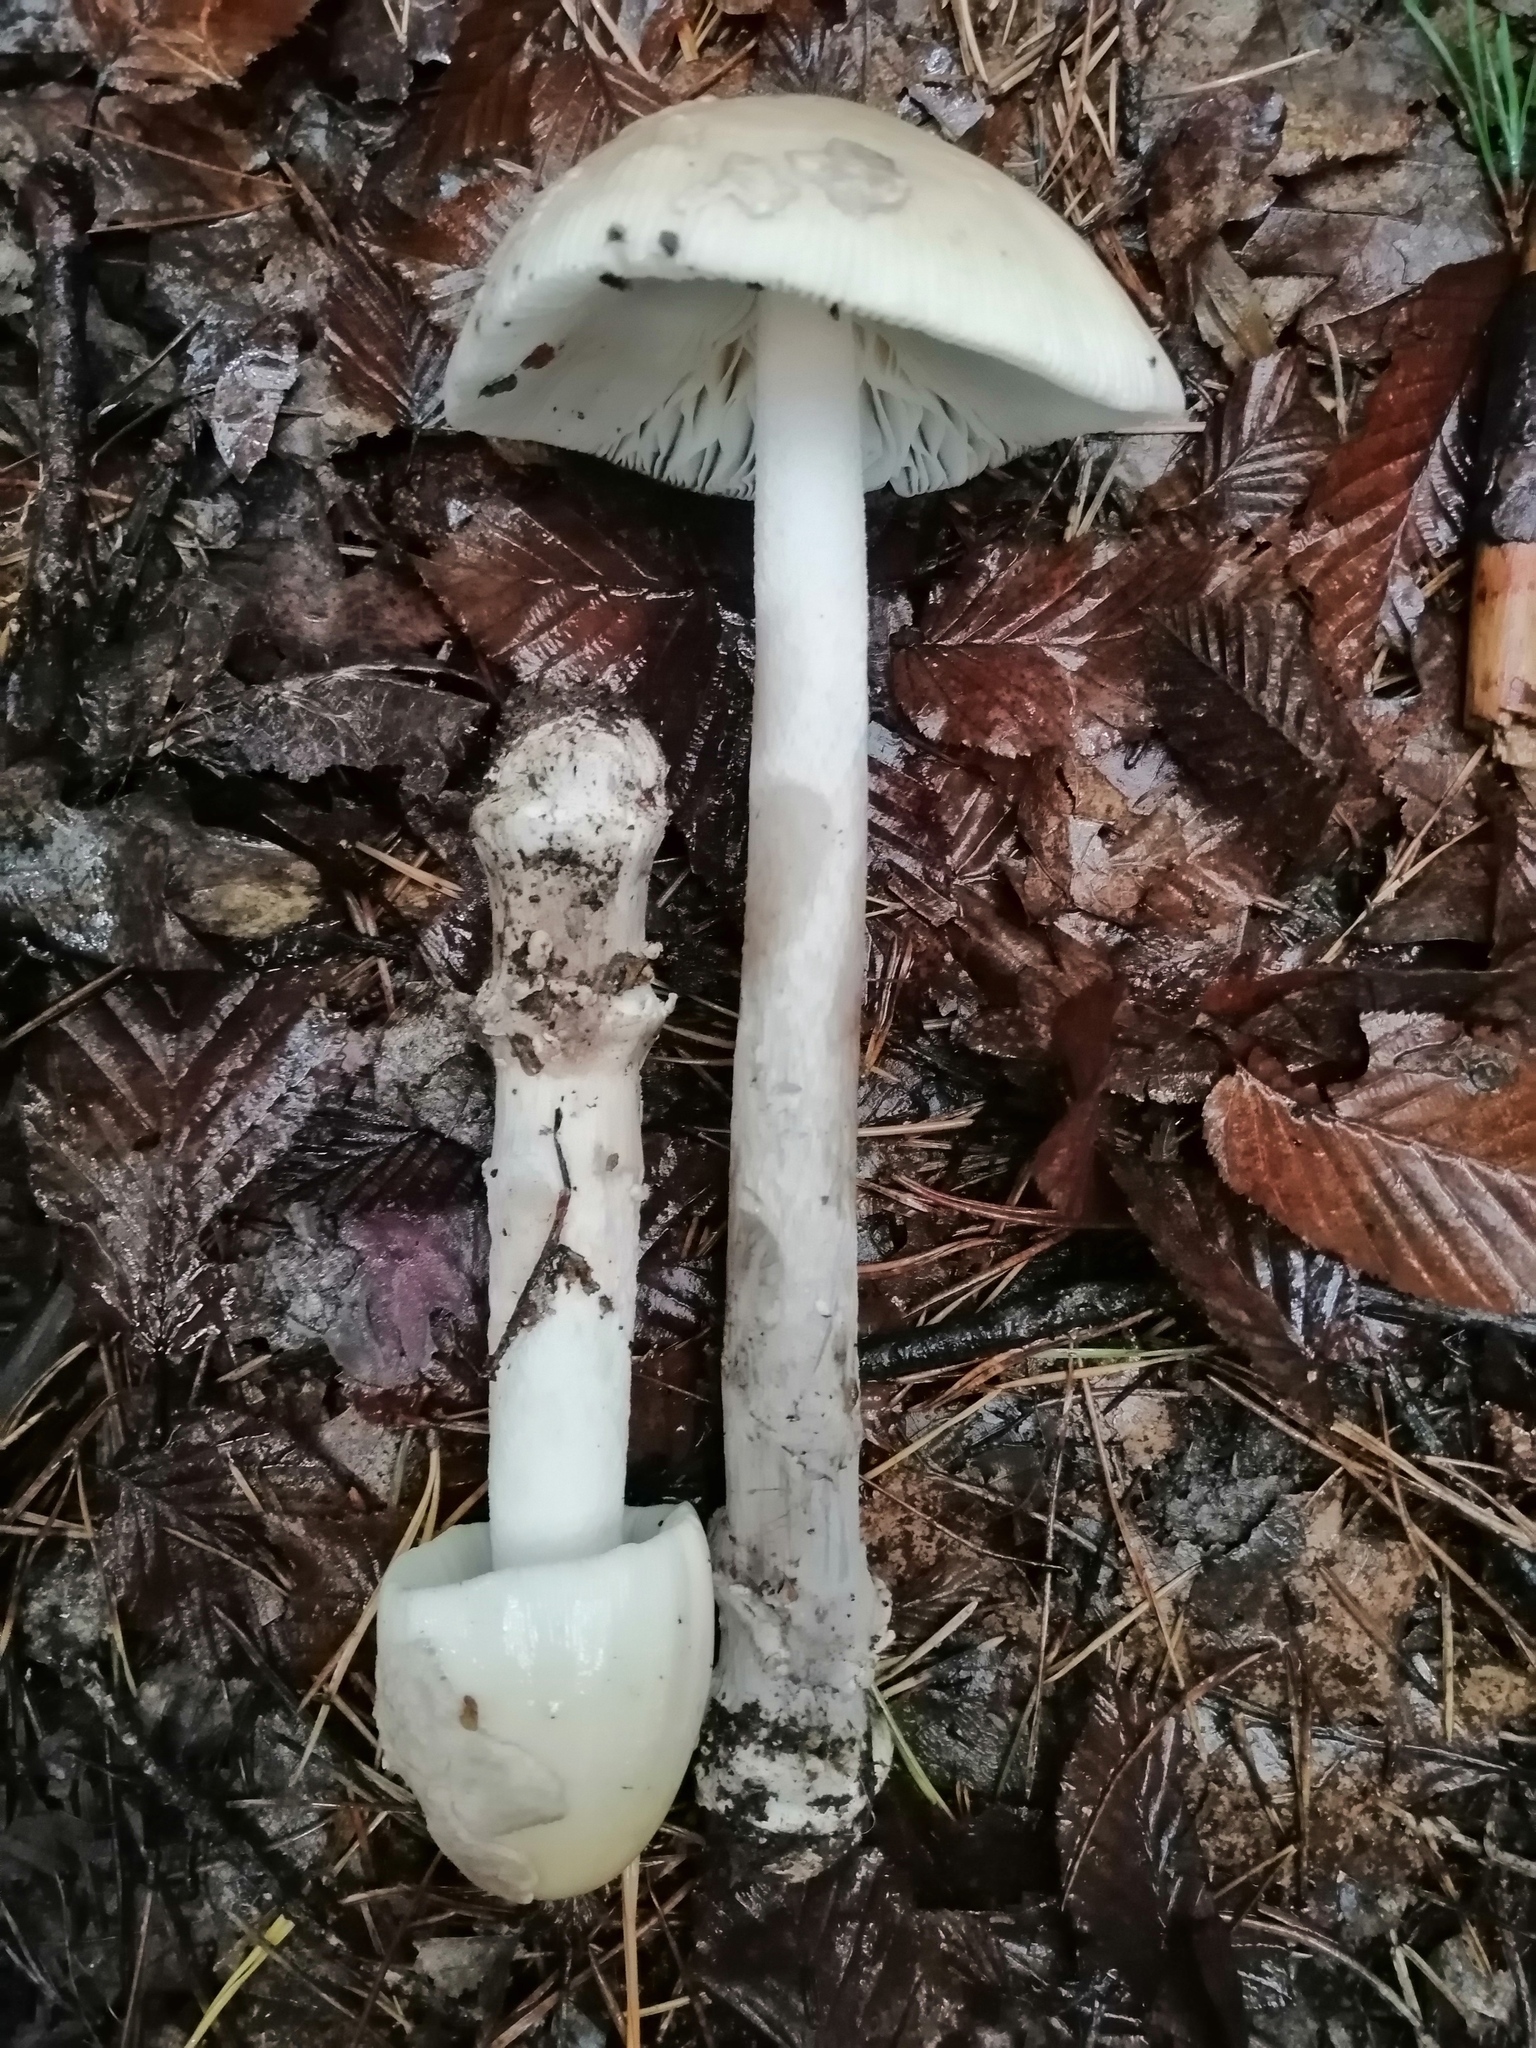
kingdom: Fungi
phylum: Basidiomycota
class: Agaricomycetes
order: Agaricales
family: Amanitaceae
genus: Amanita
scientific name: Amanita ceciliae
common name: Snakeskin grisette
